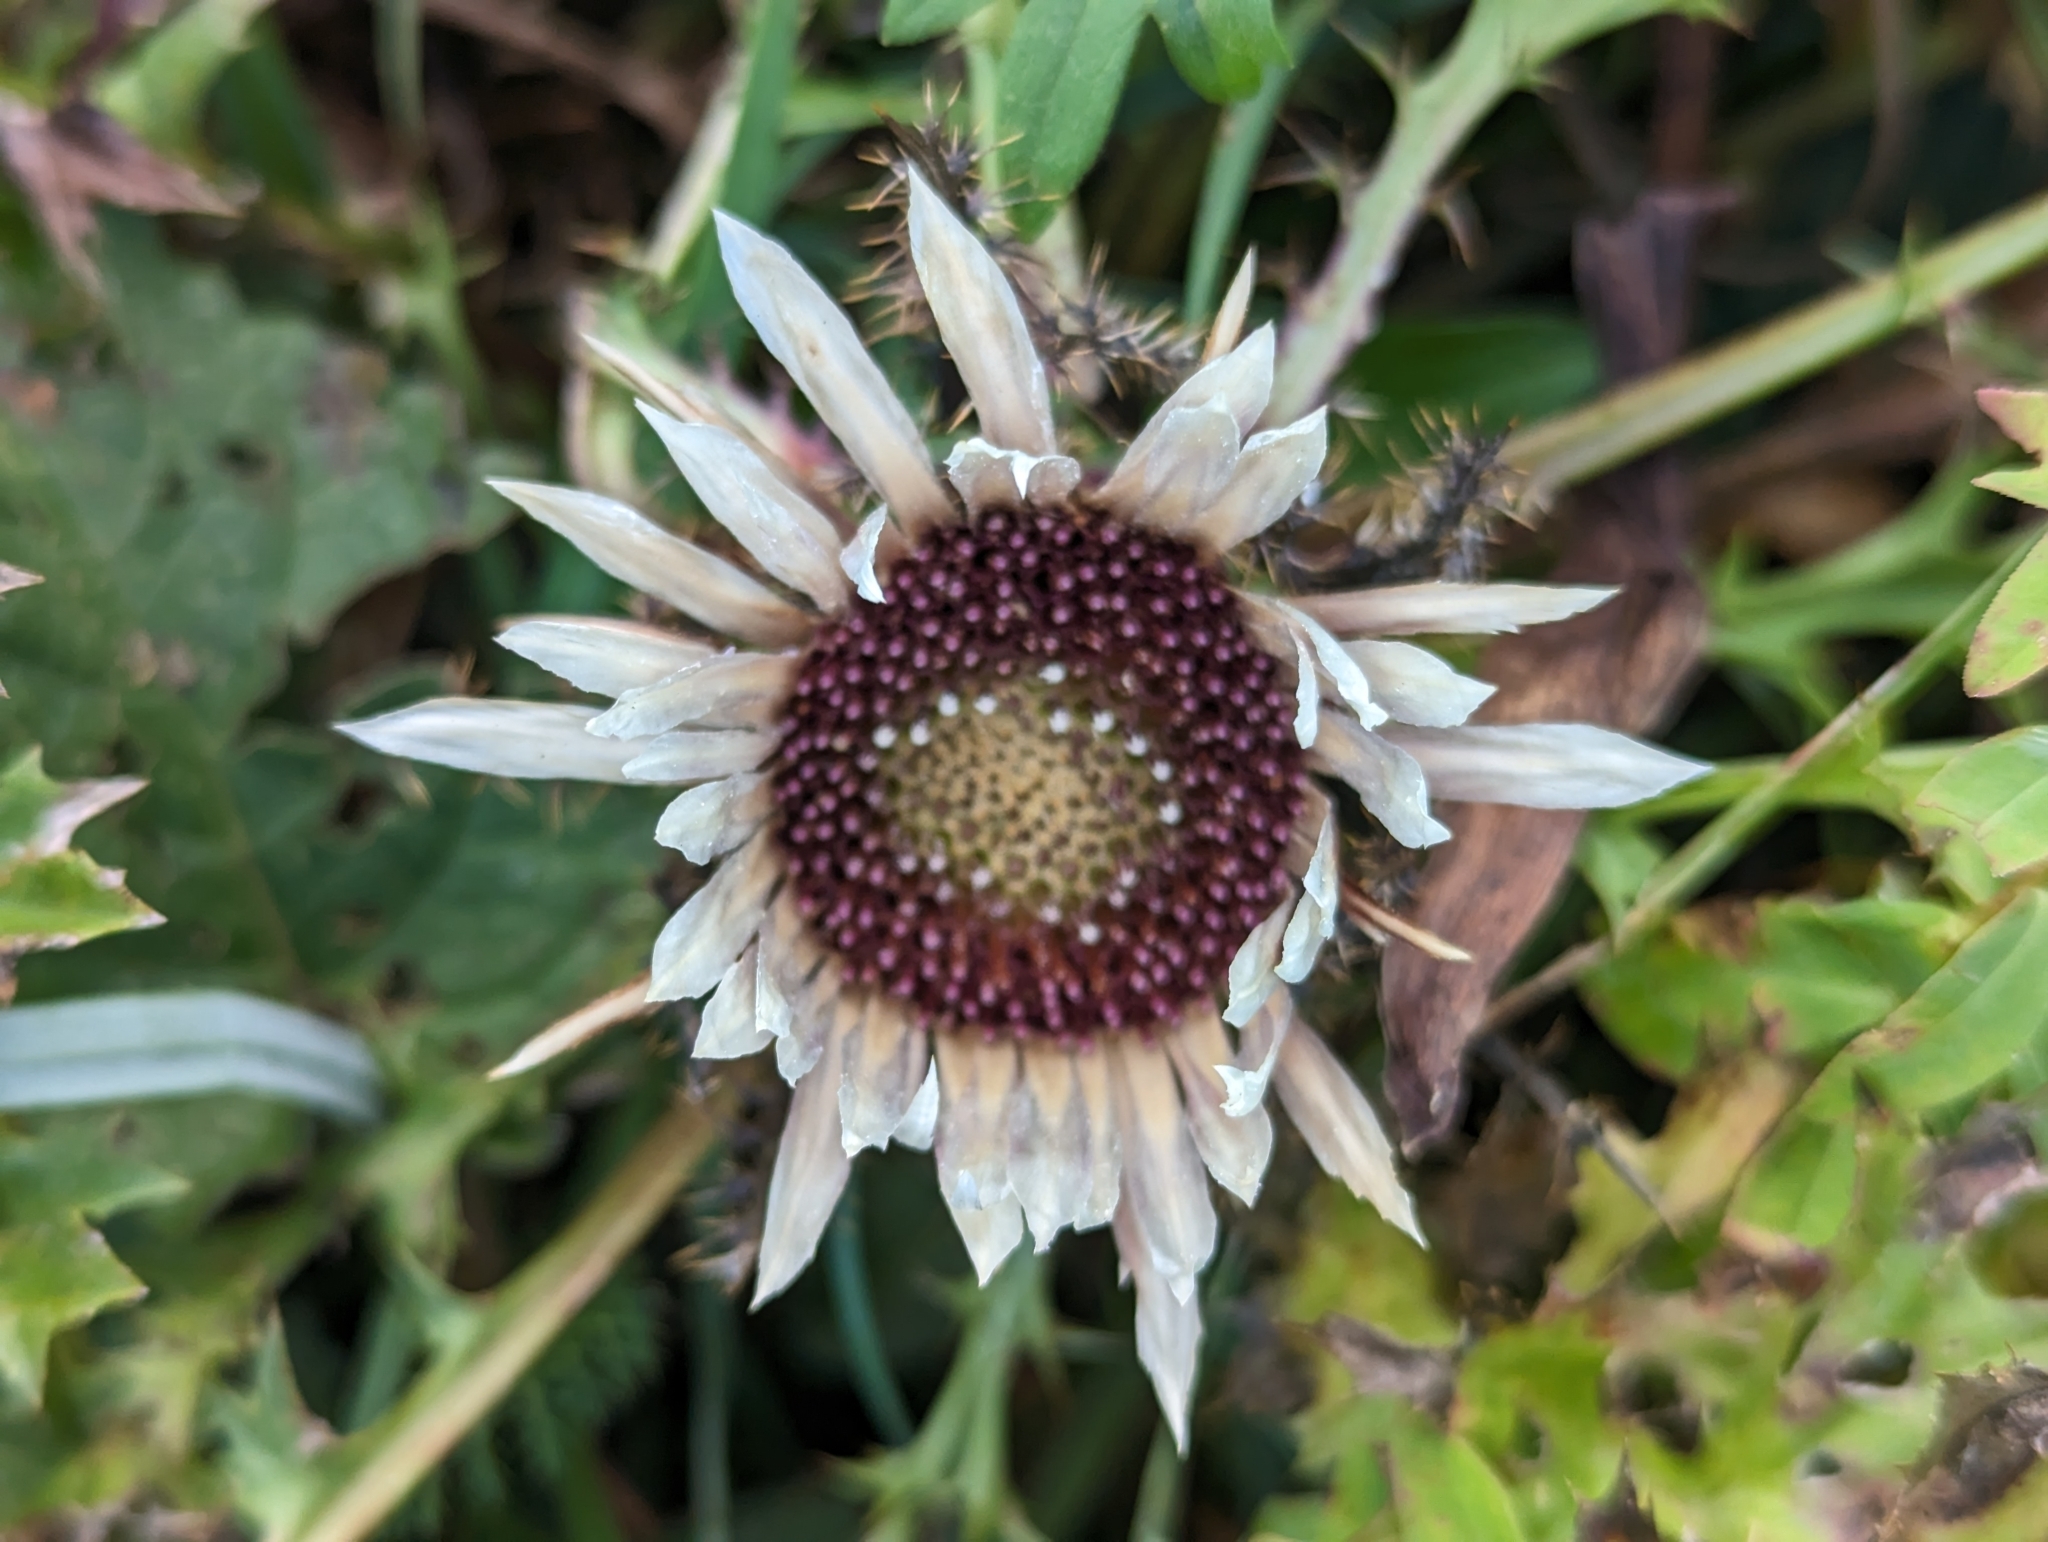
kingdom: Plantae
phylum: Tracheophyta
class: Magnoliopsida
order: Asterales
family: Asteraceae
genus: Carlina
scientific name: Carlina acaulis
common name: Stemless carline thistle
